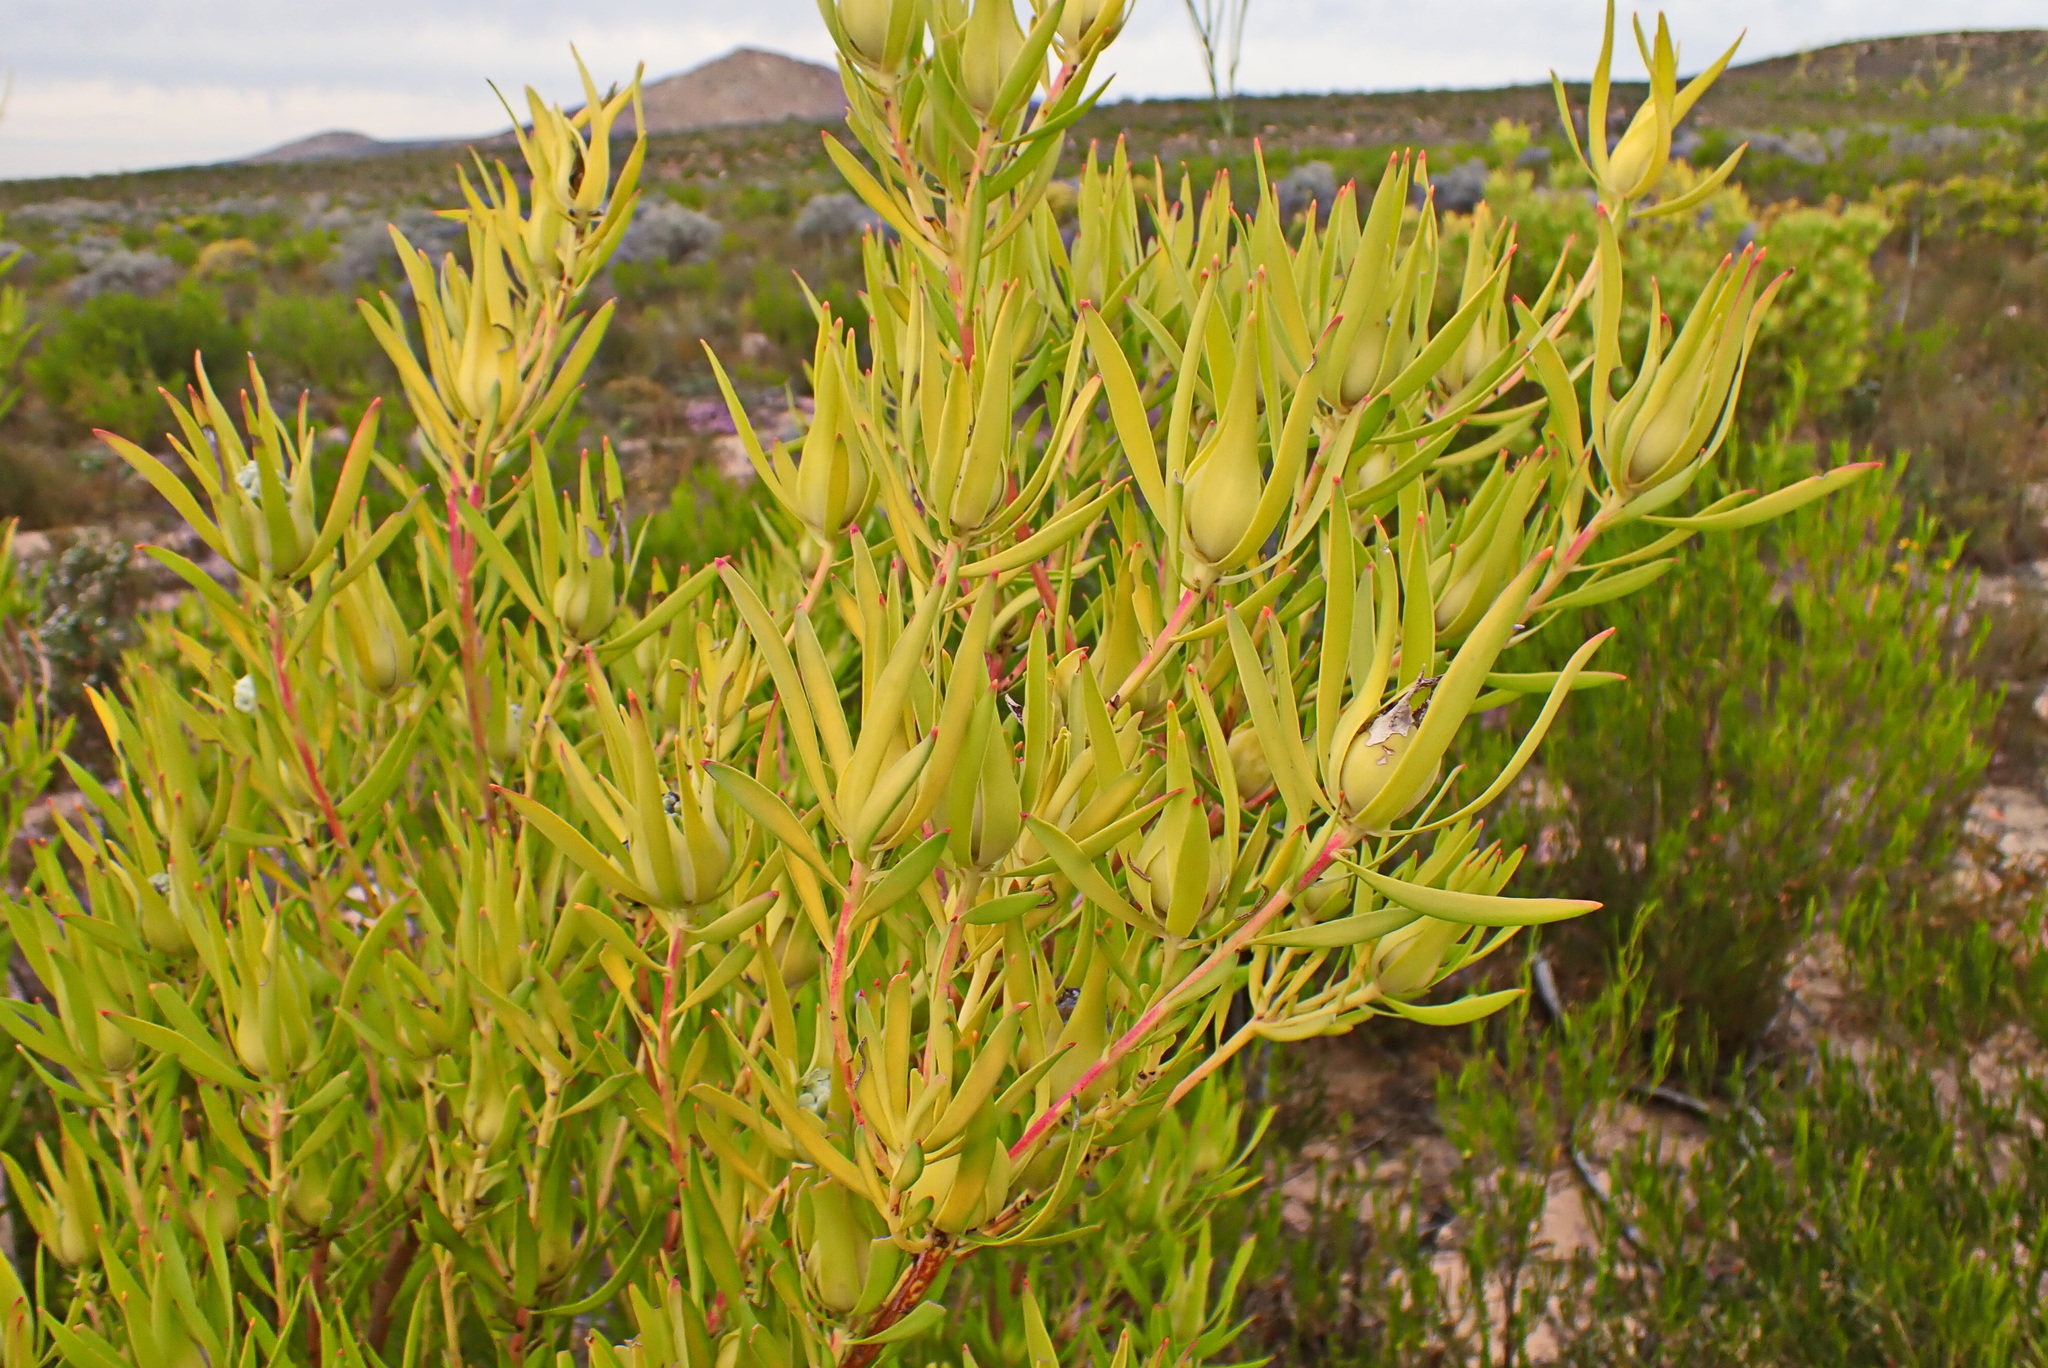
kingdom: Plantae
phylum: Tracheophyta
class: Magnoliopsida
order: Proteales
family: Proteaceae
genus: Leucadendron
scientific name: Leucadendron salignum
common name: Common sunshine conebush
